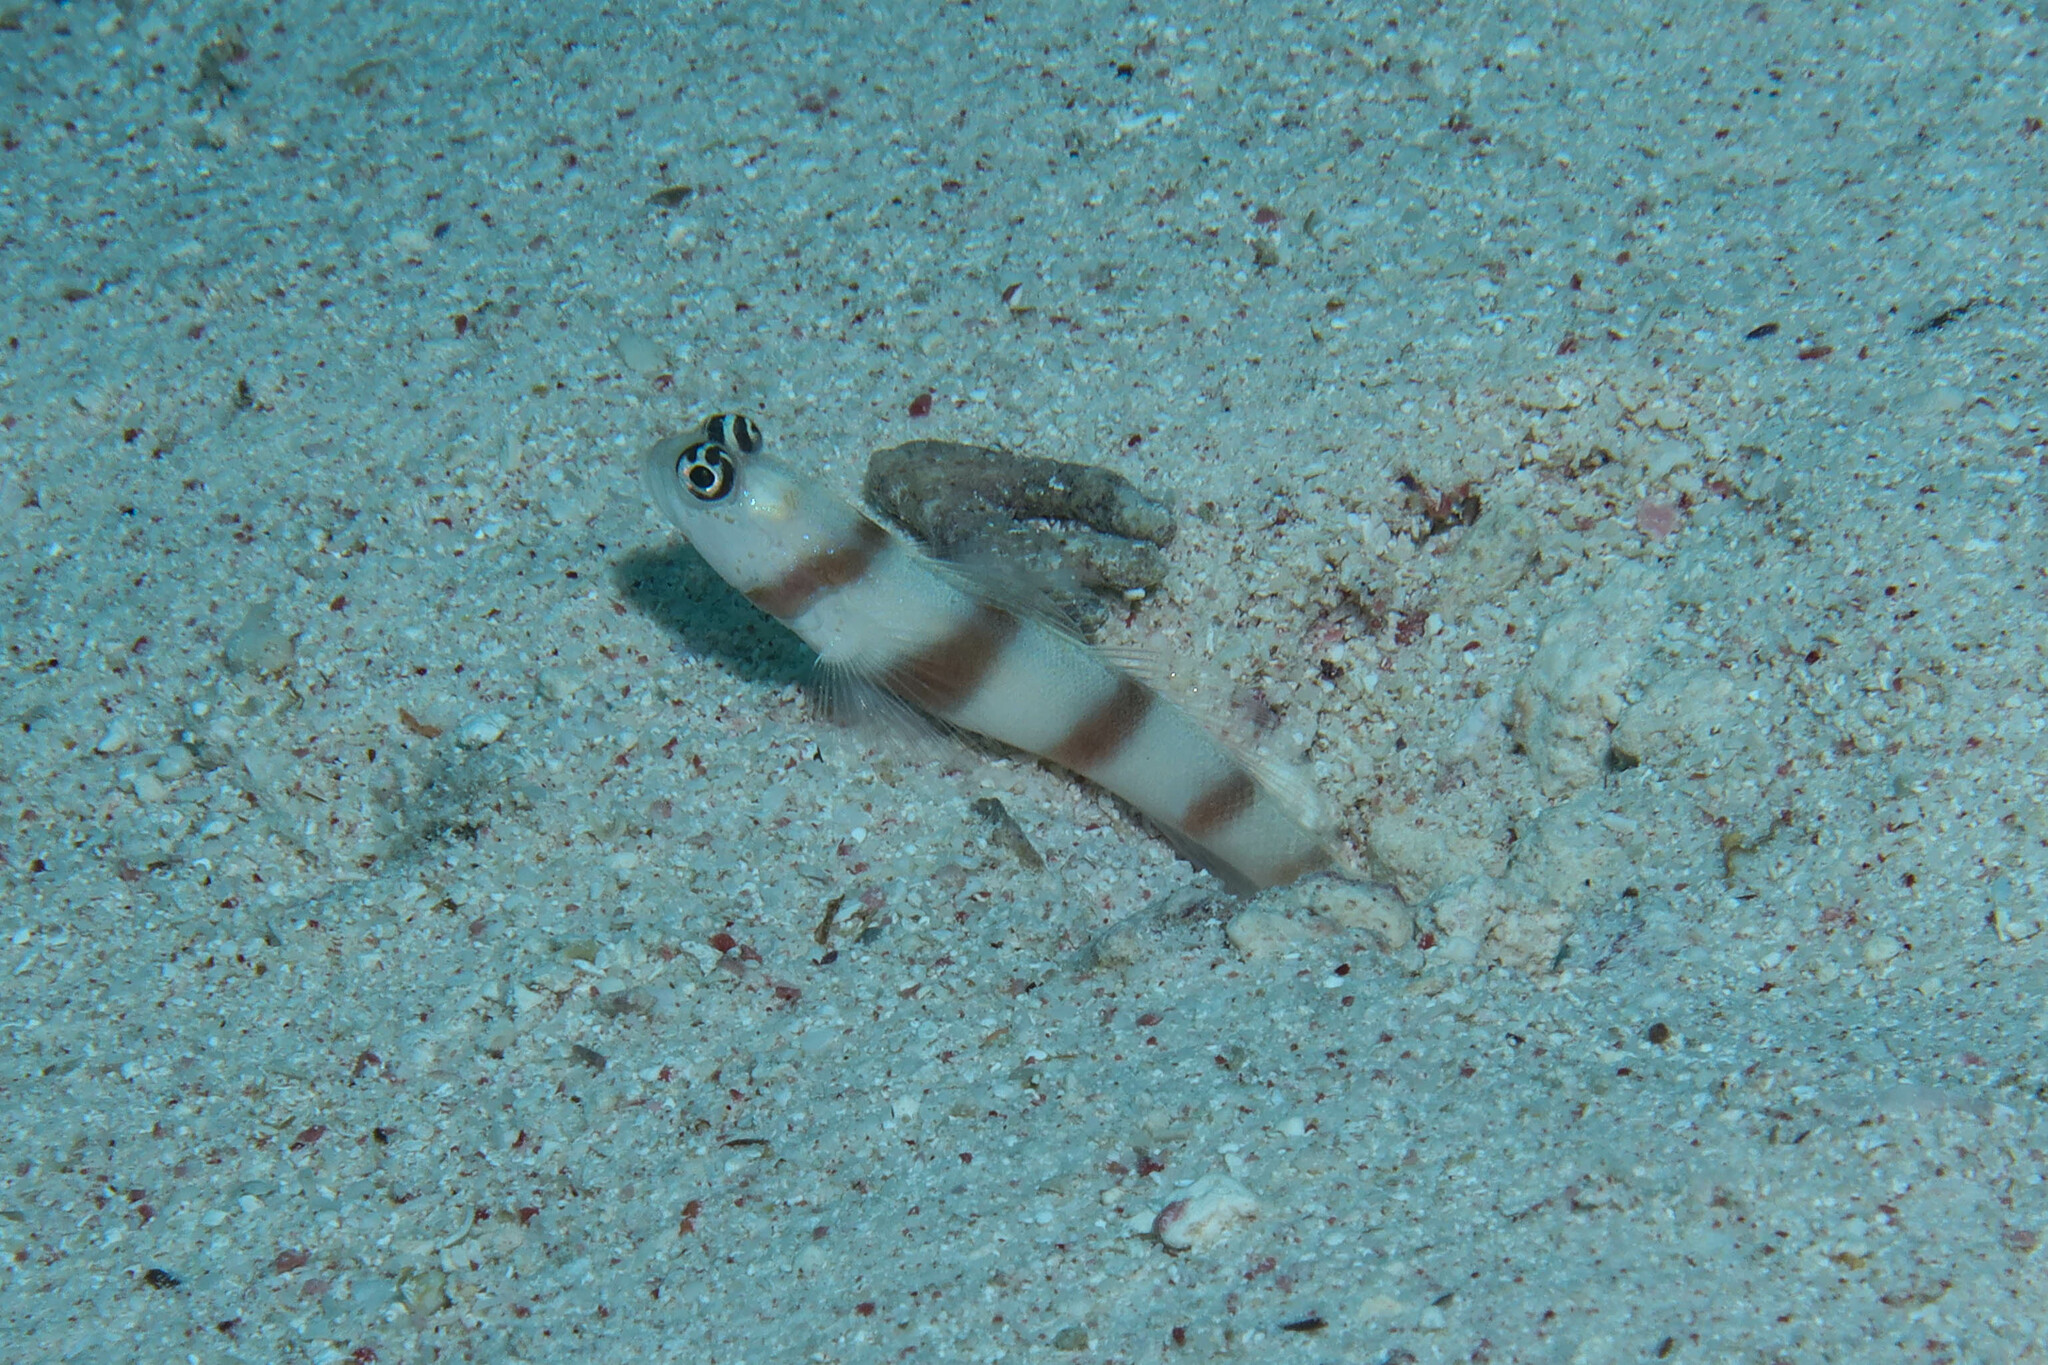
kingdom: Animalia
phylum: Chordata
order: Perciformes
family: Gobiidae
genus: Amblyeleotris
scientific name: Amblyeleotris steinitzi
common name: Steinitz' prawn-goby
